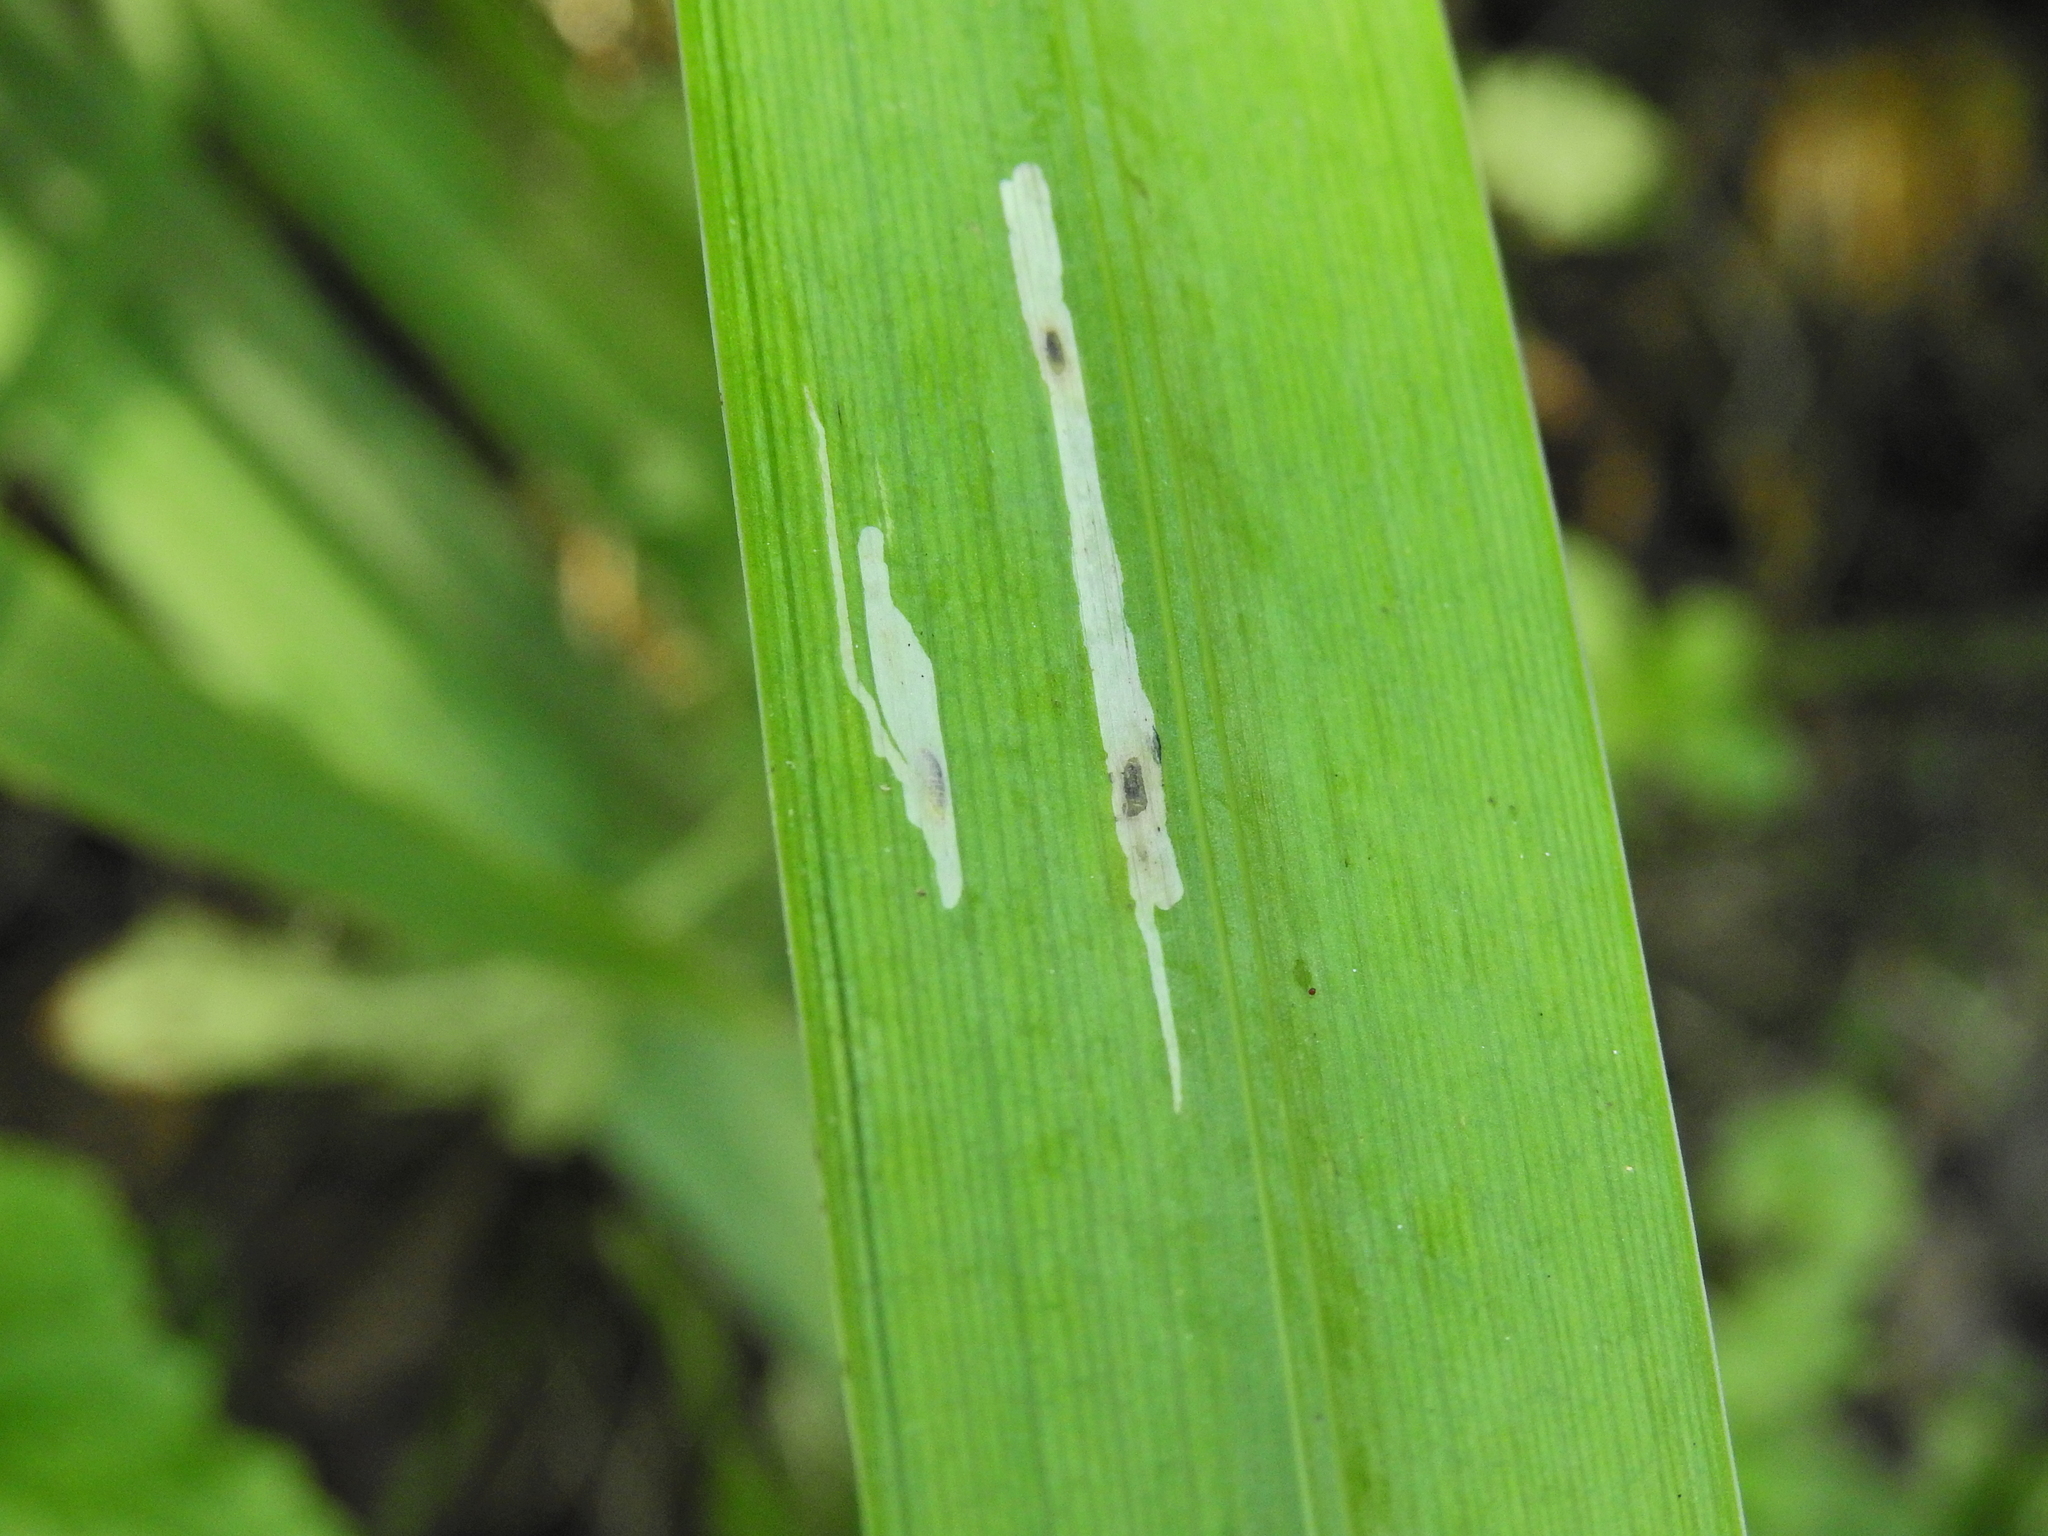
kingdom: Animalia
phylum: Arthropoda
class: Insecta
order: Diptera
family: Agromyzidae
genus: Cerodontha
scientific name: Cerodontha ircos
